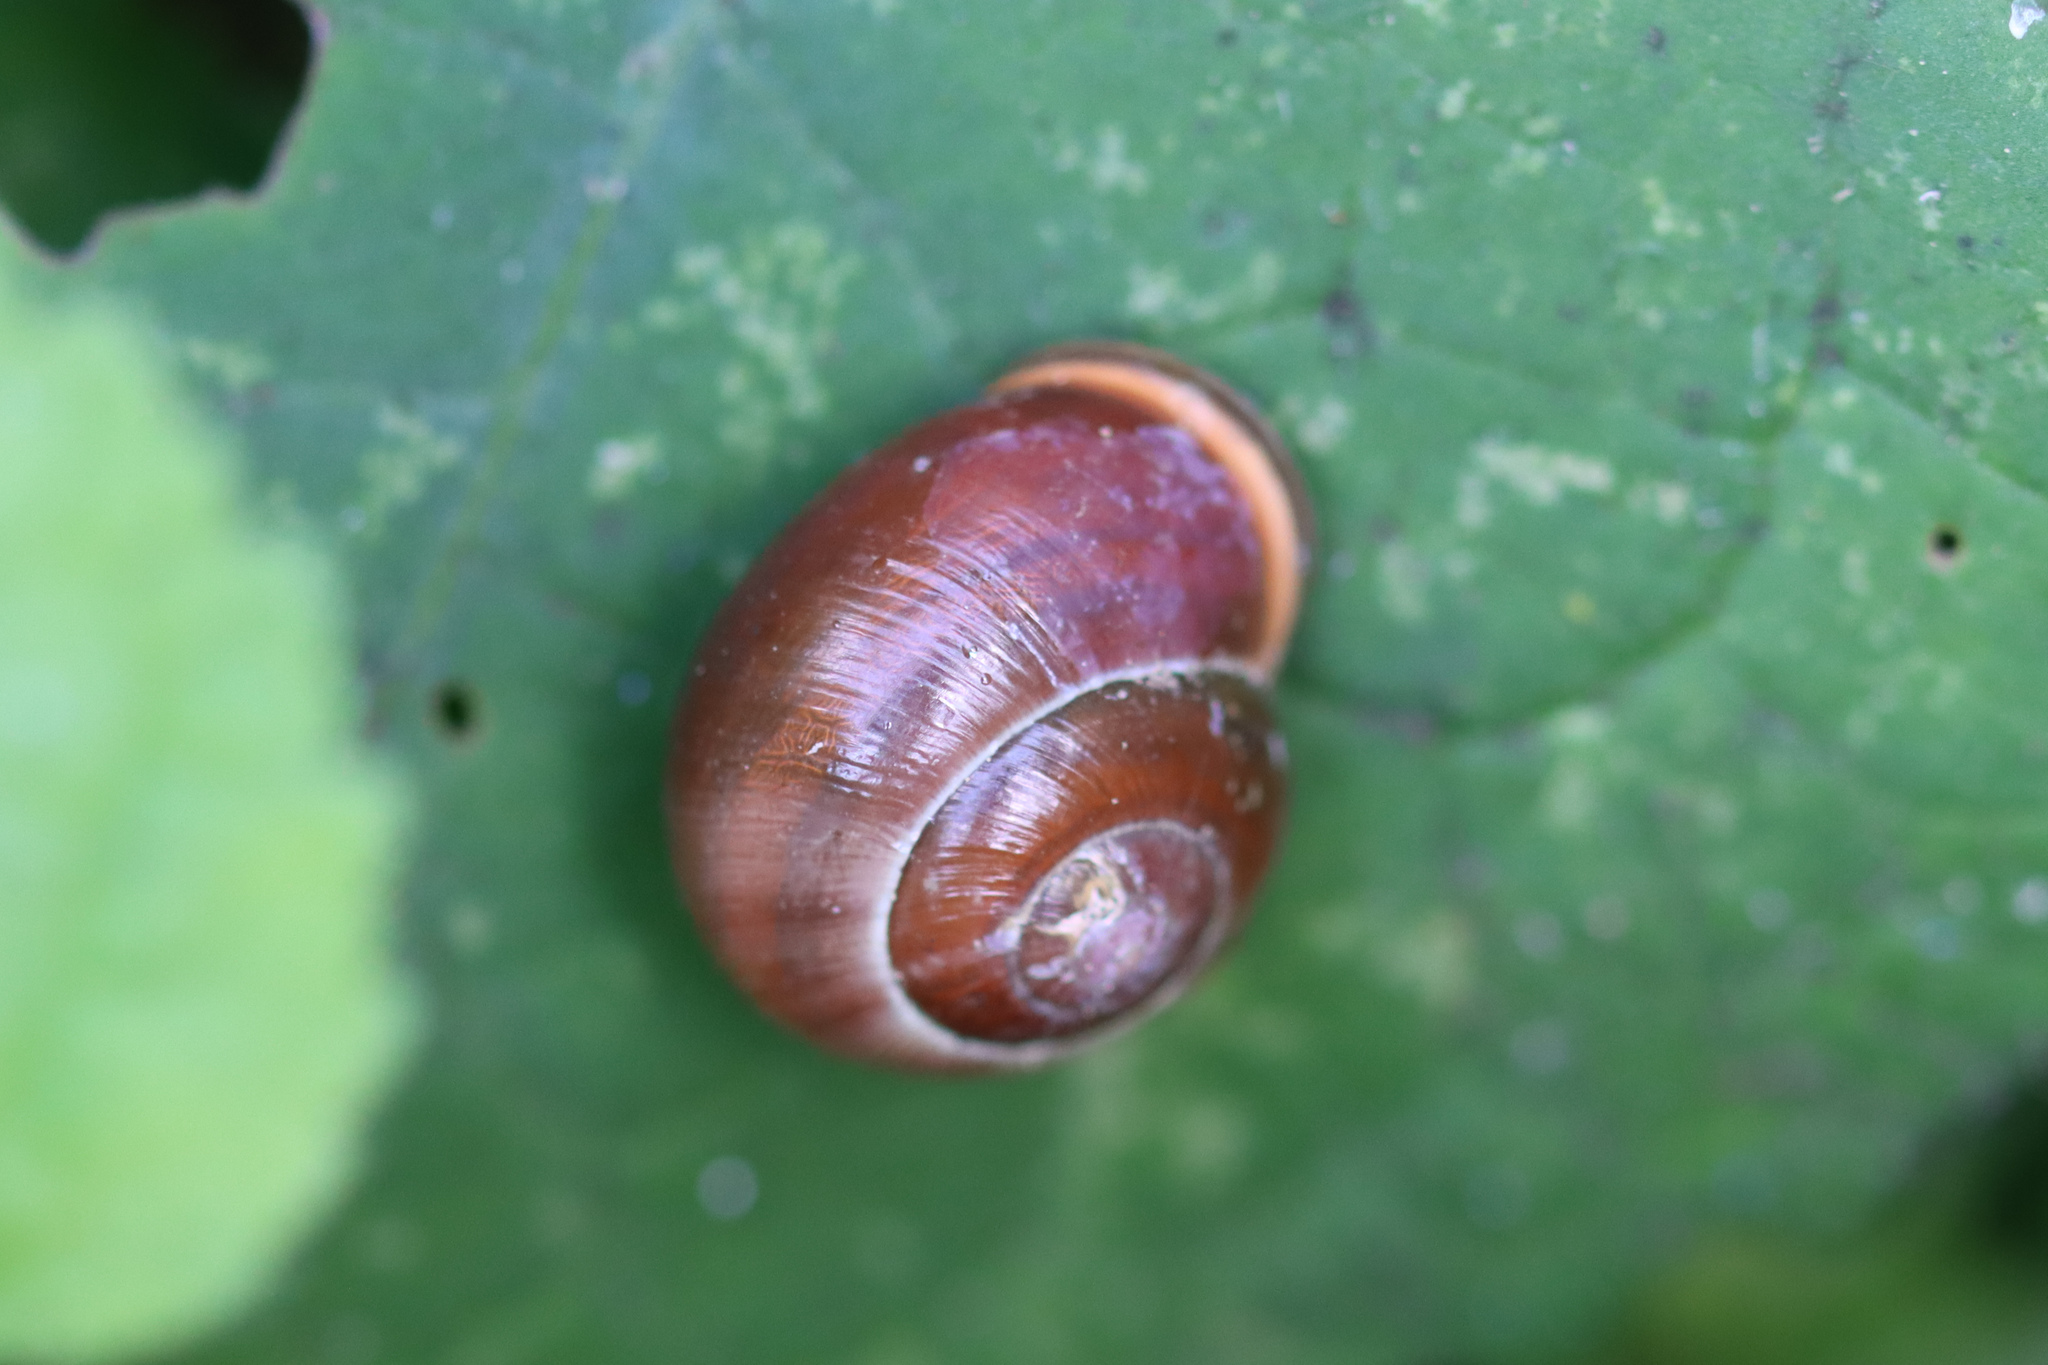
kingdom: Animalia
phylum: Mollusca
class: Gastropoda
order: Stylommatophora
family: Helicidae
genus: Cepaea
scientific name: Cepaea nemoralis
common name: Grovesnail
